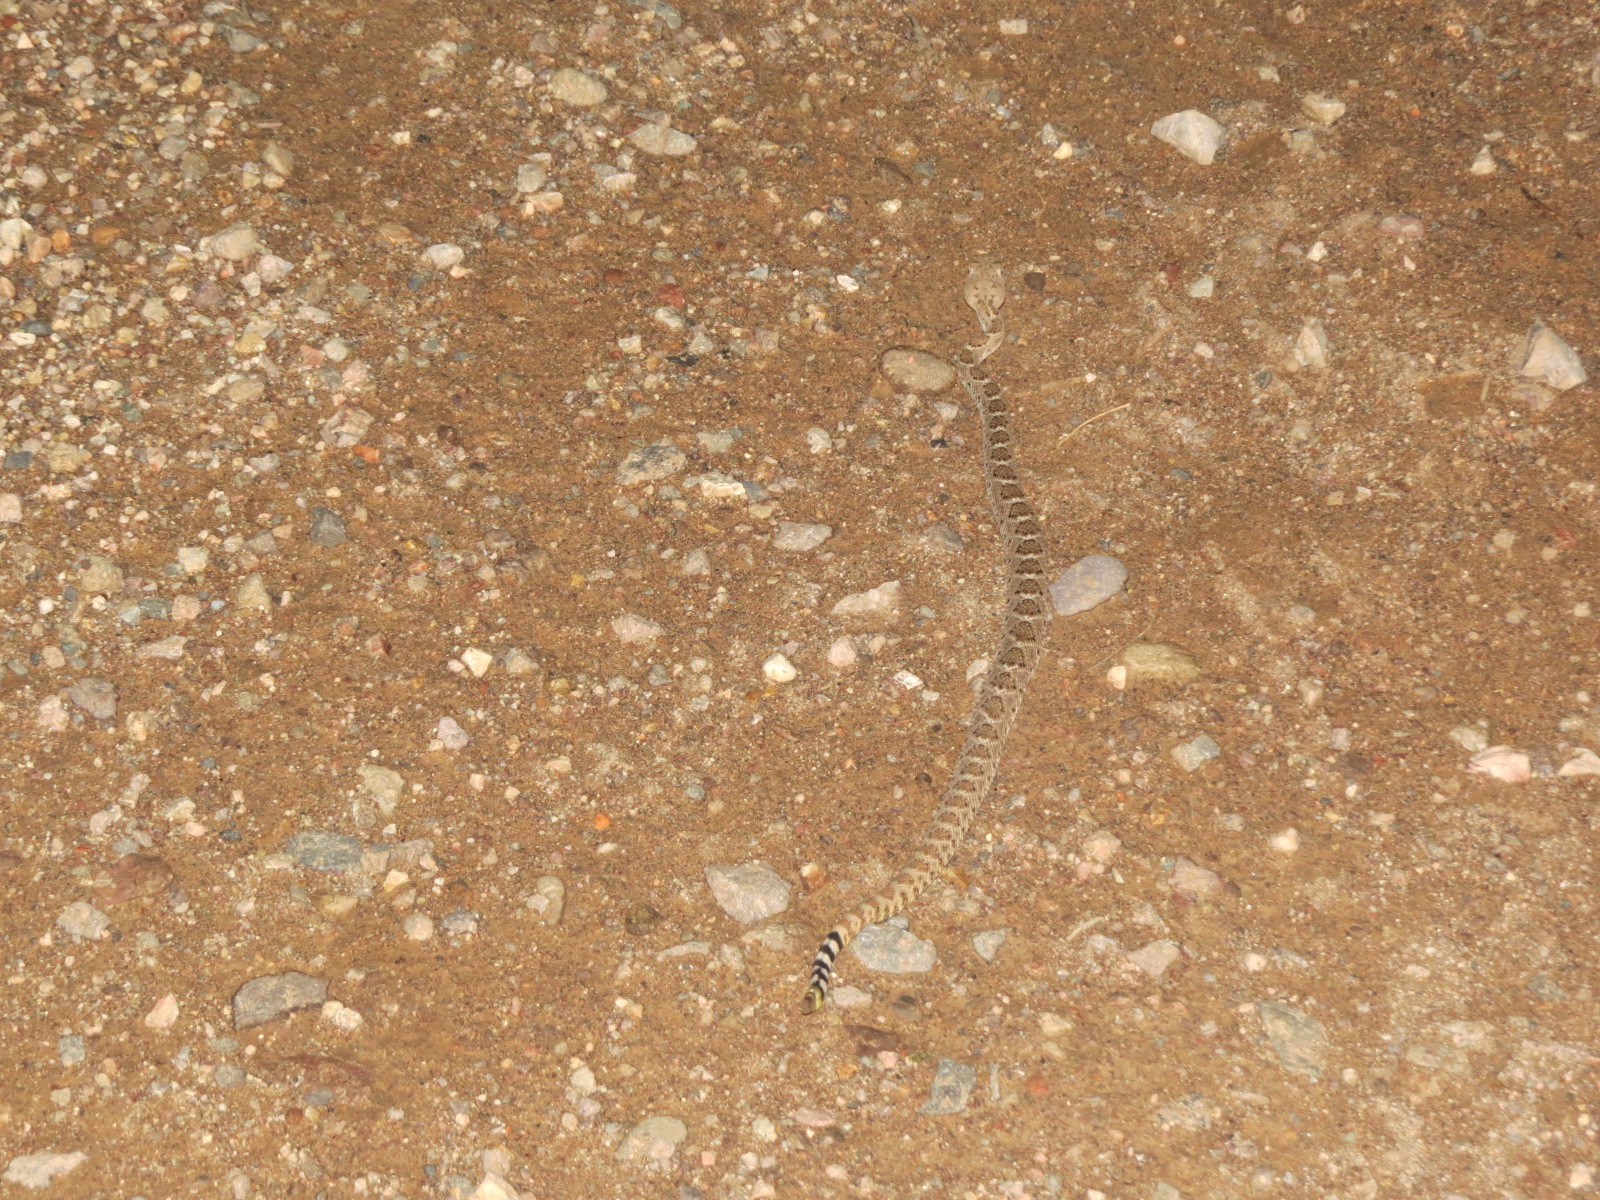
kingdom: Animalia
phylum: Chordata
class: Squamata
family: Viperidae
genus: Crotalus
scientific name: Crotalus atrox
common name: Western diamond-backed rattlesnake
